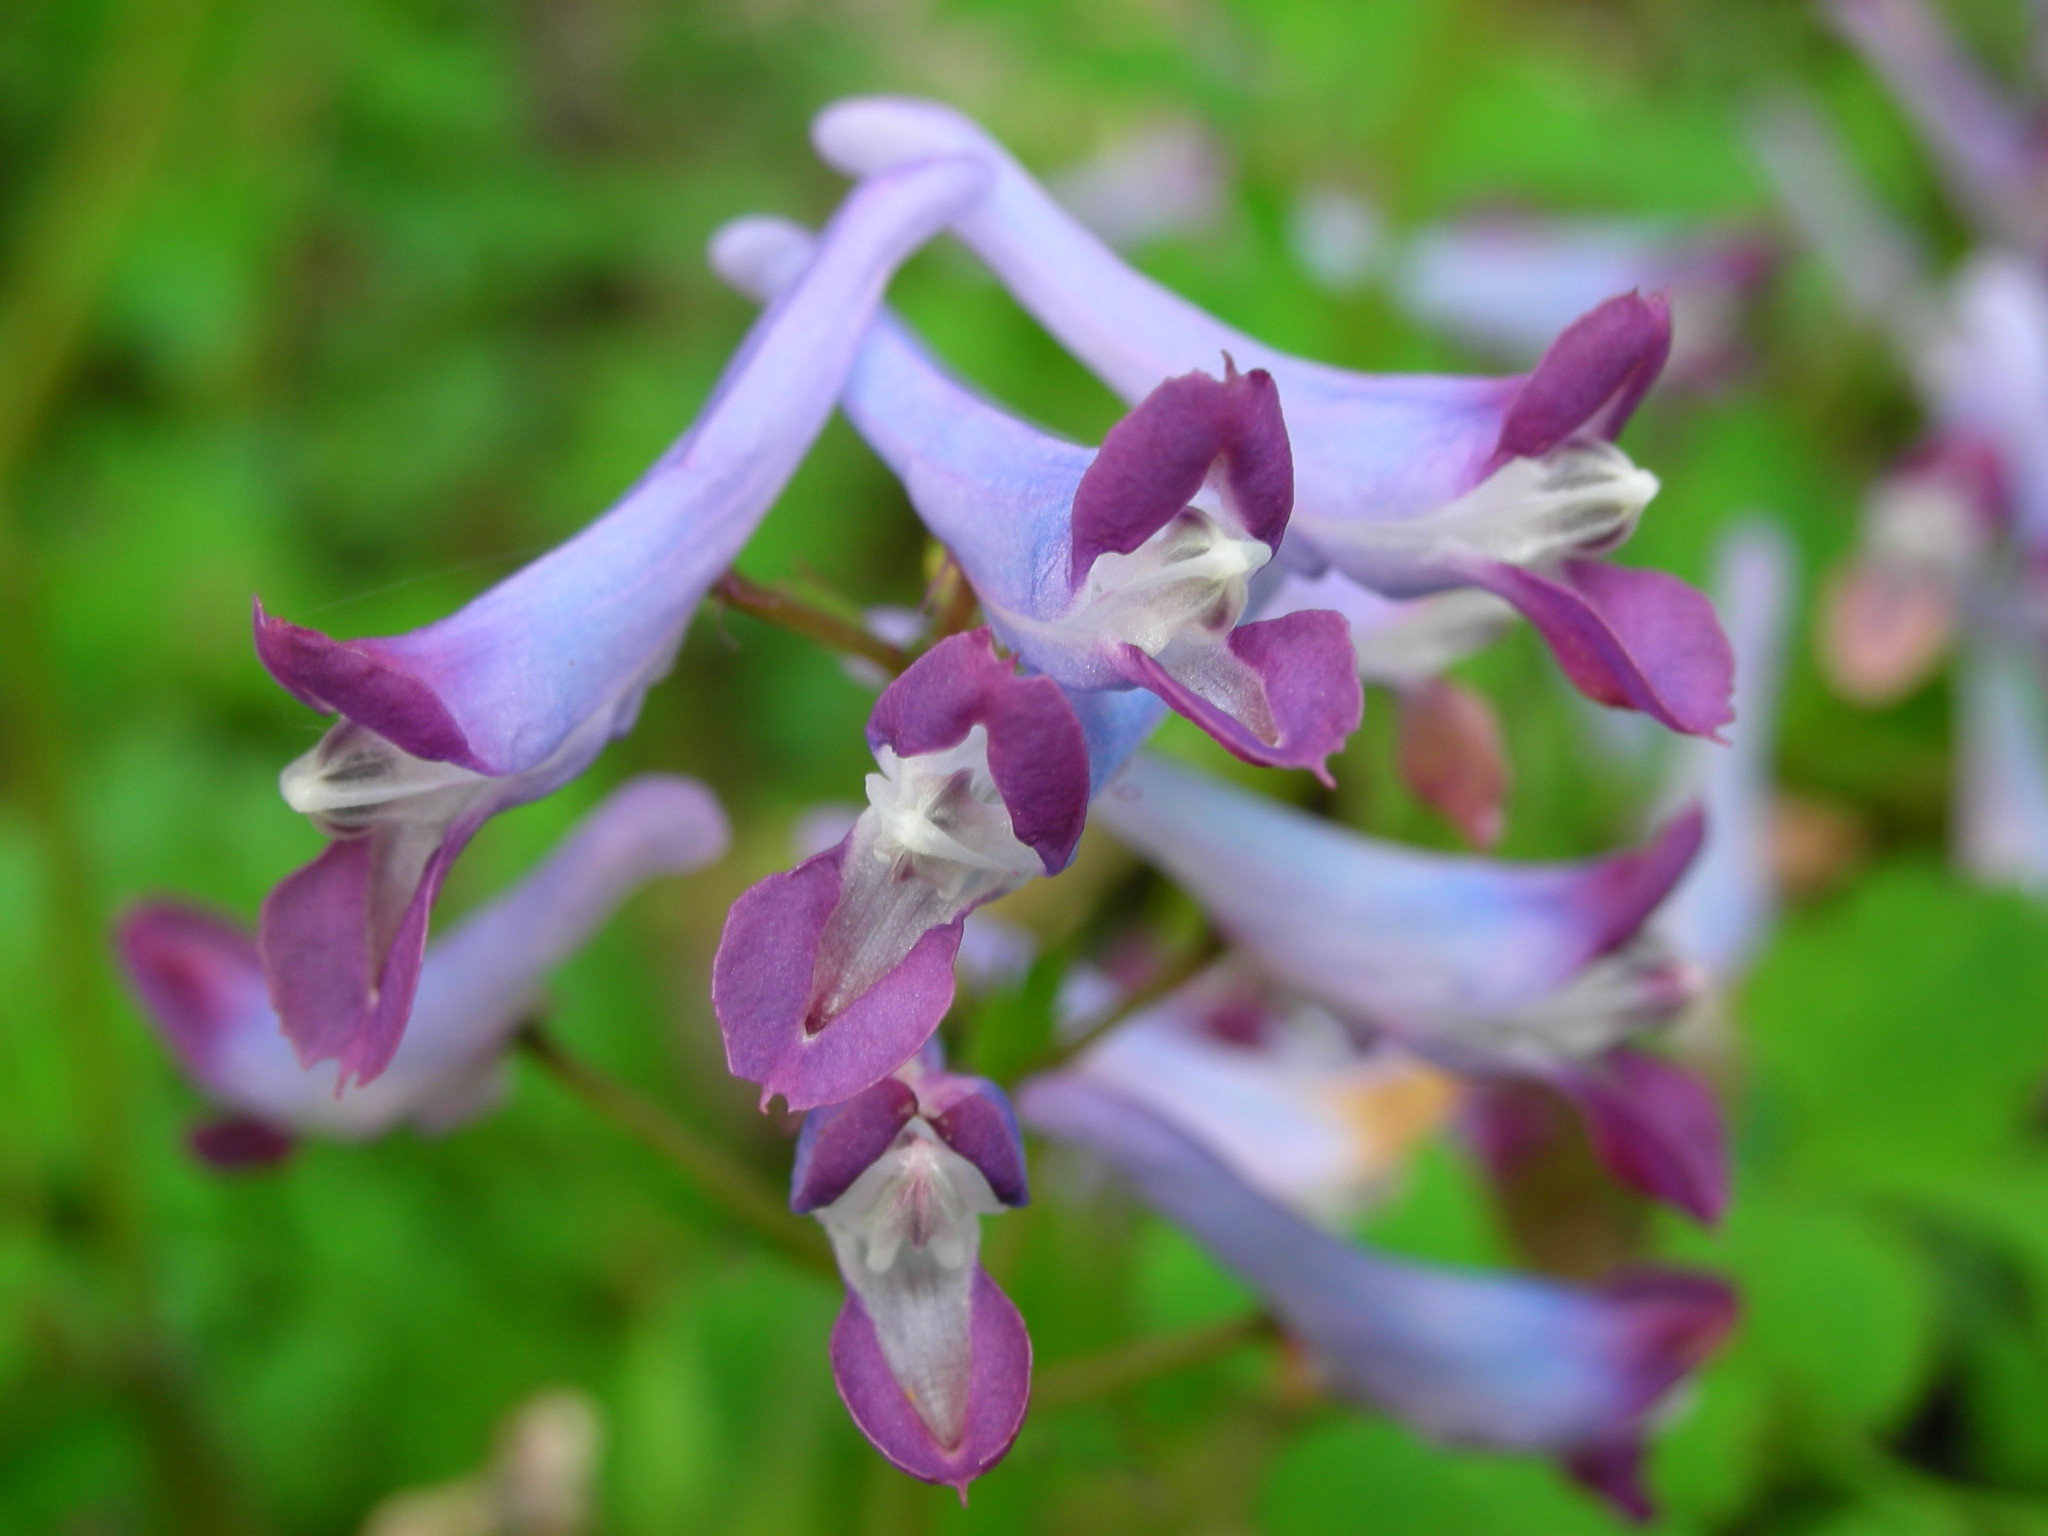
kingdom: Plantae
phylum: Tracheophyta
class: Magnoliopsida
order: Ranunculales
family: Papaveraceae
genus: Corydalis
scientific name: Corydalis incisa
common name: Incised fumewort
